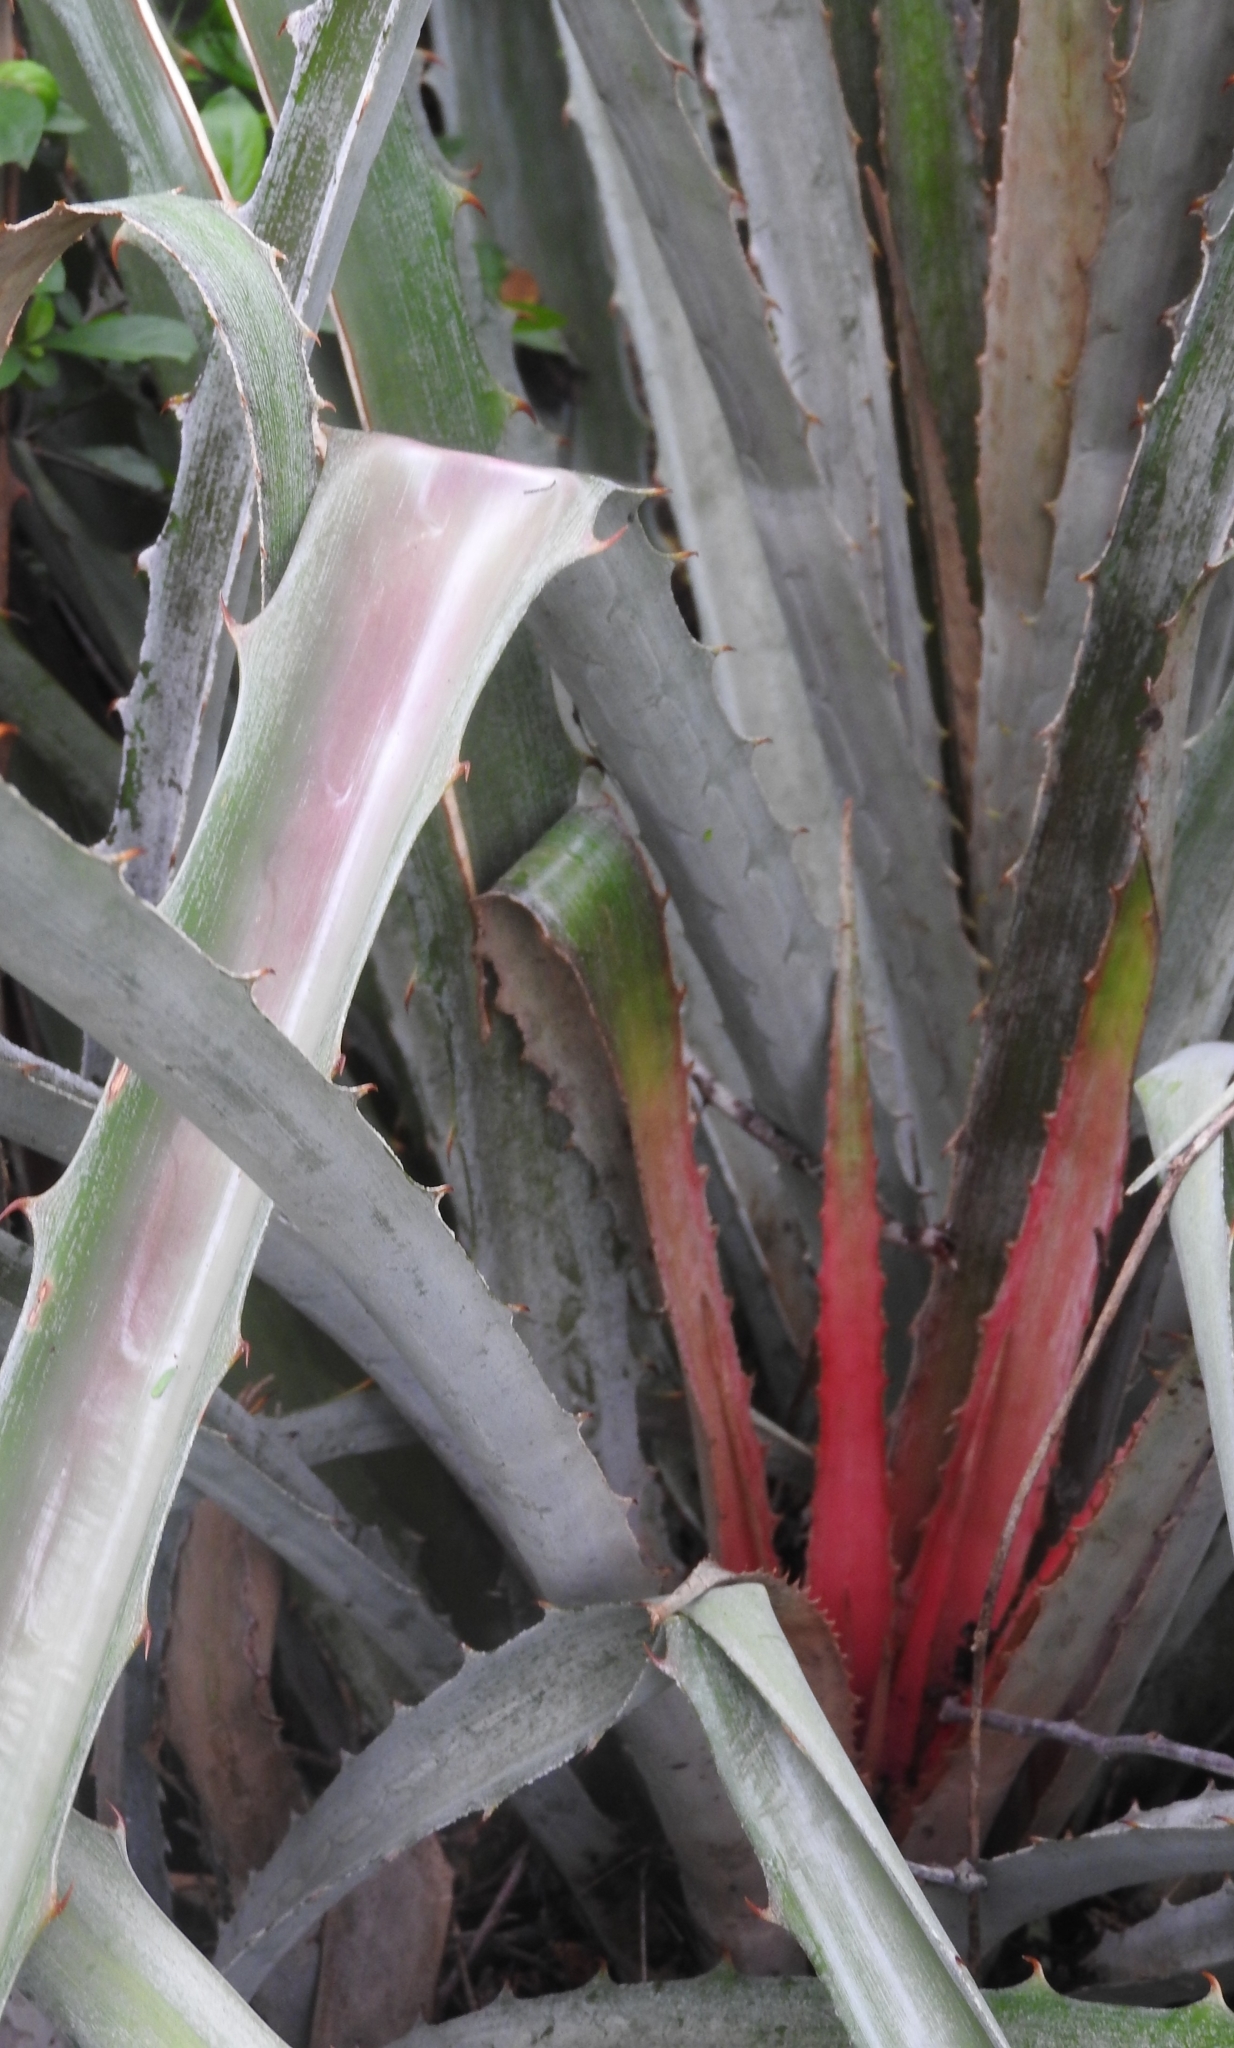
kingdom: Plantae
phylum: Tracheophyta
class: Liliopsida
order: Poales
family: Bromeliaceae
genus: Bromelia
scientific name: Bromelia pinguin
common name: Pinguin
